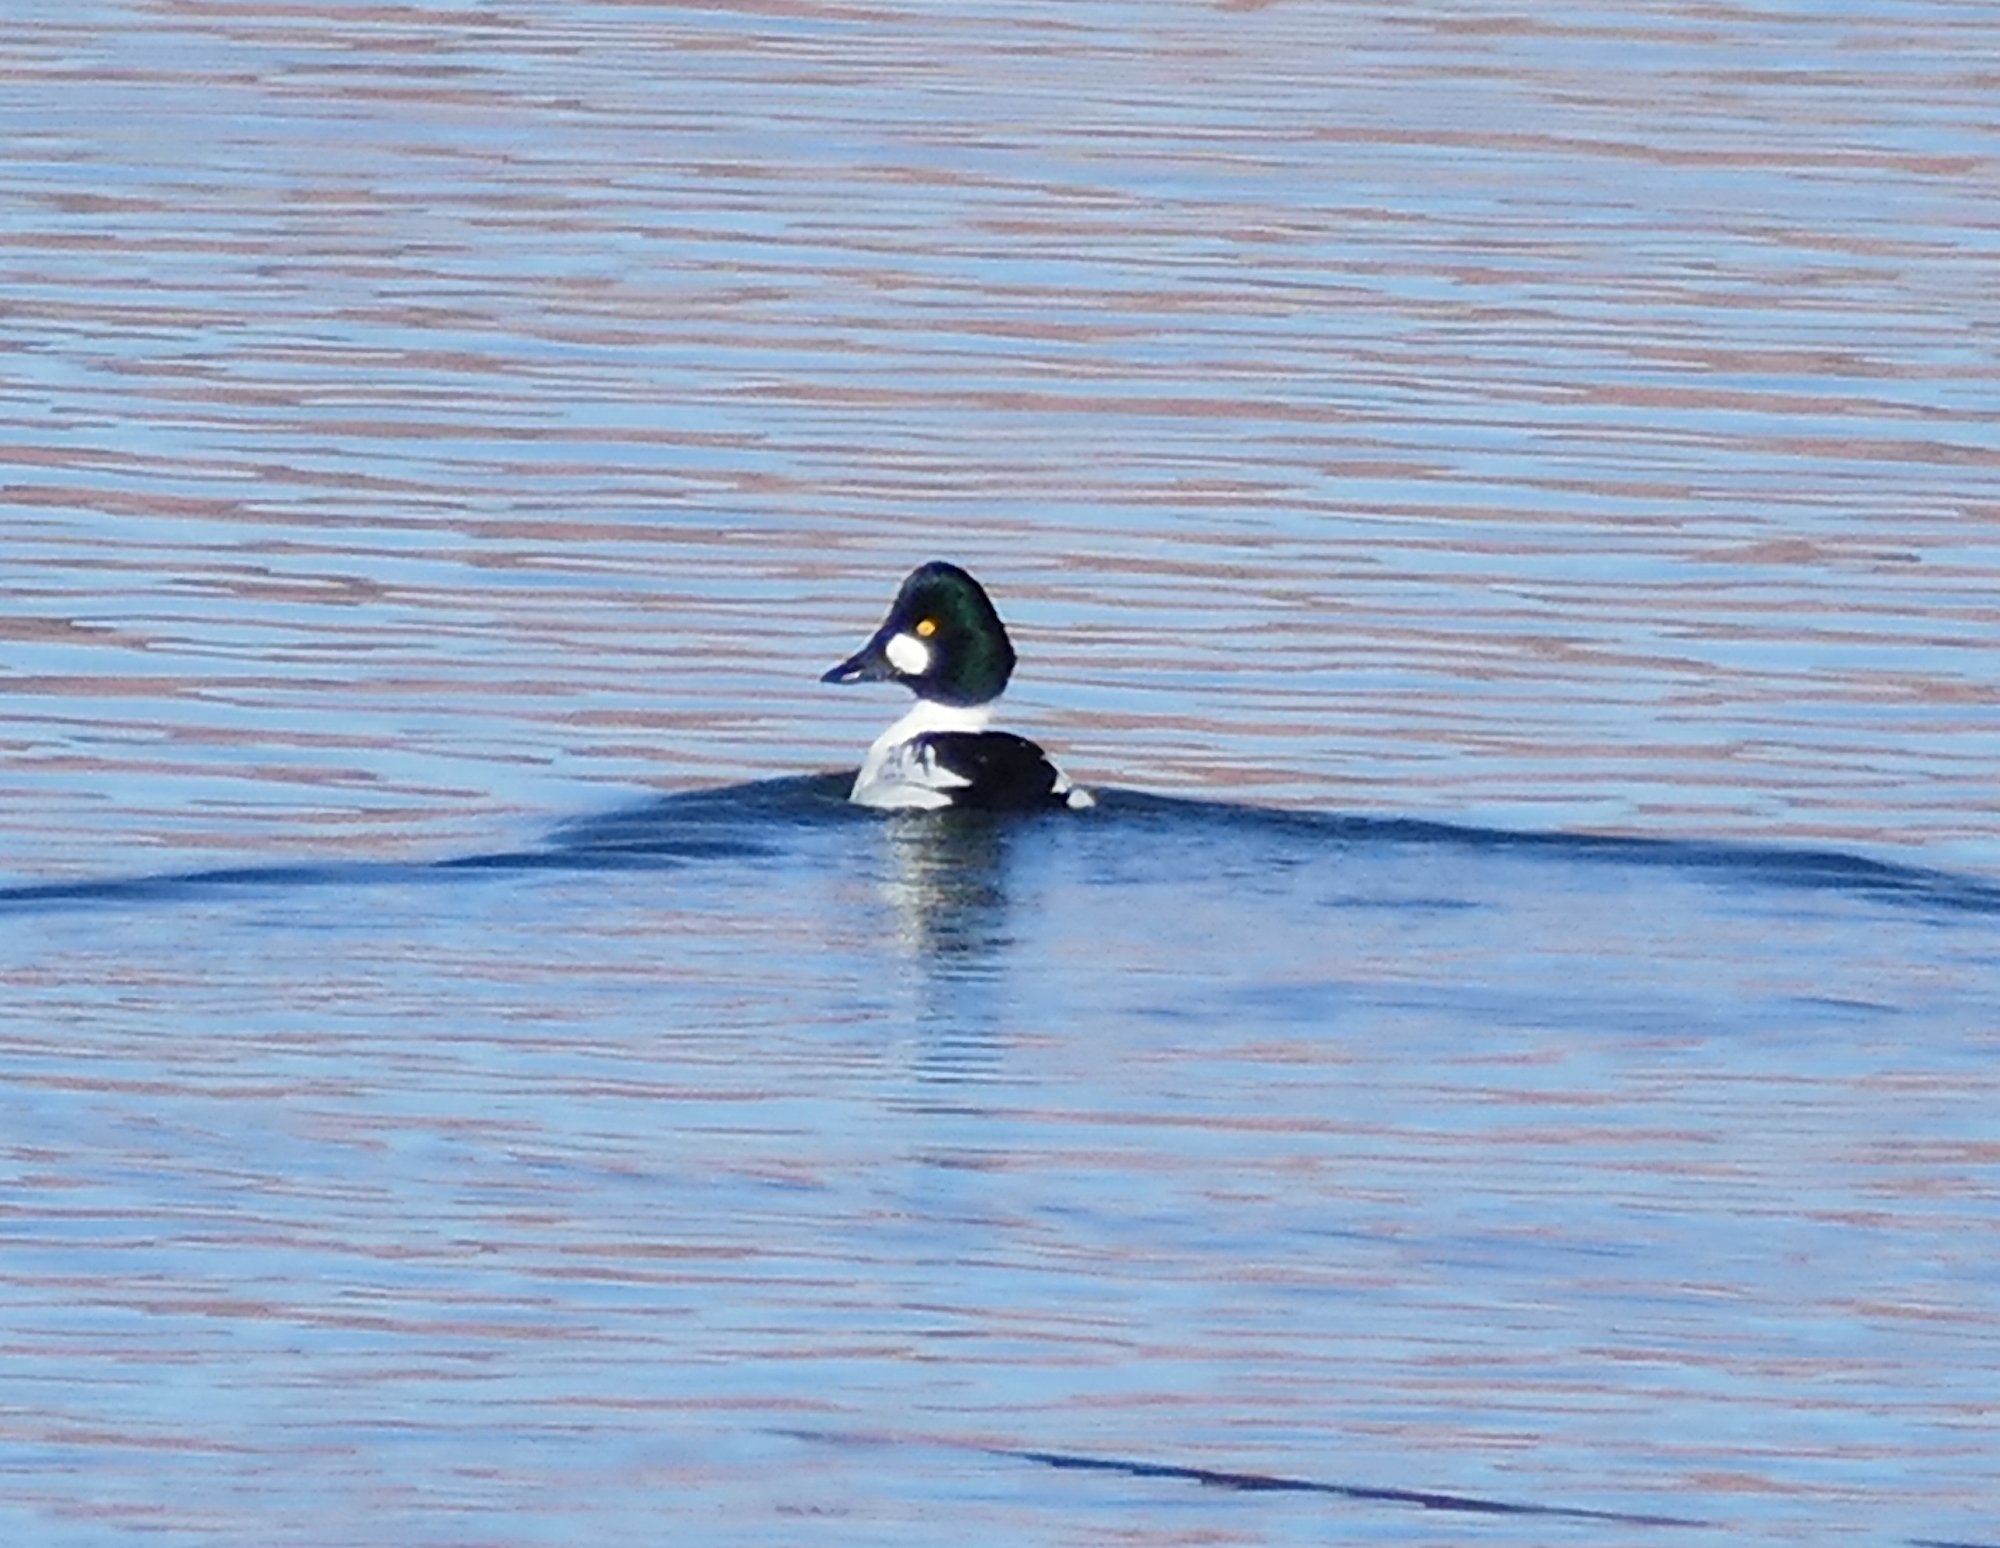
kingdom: Animalia
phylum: Chordata
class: Aves
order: Anseriformes
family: Anatidae
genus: Bucephala
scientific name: Bucephala clangula
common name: Common goldeneye
